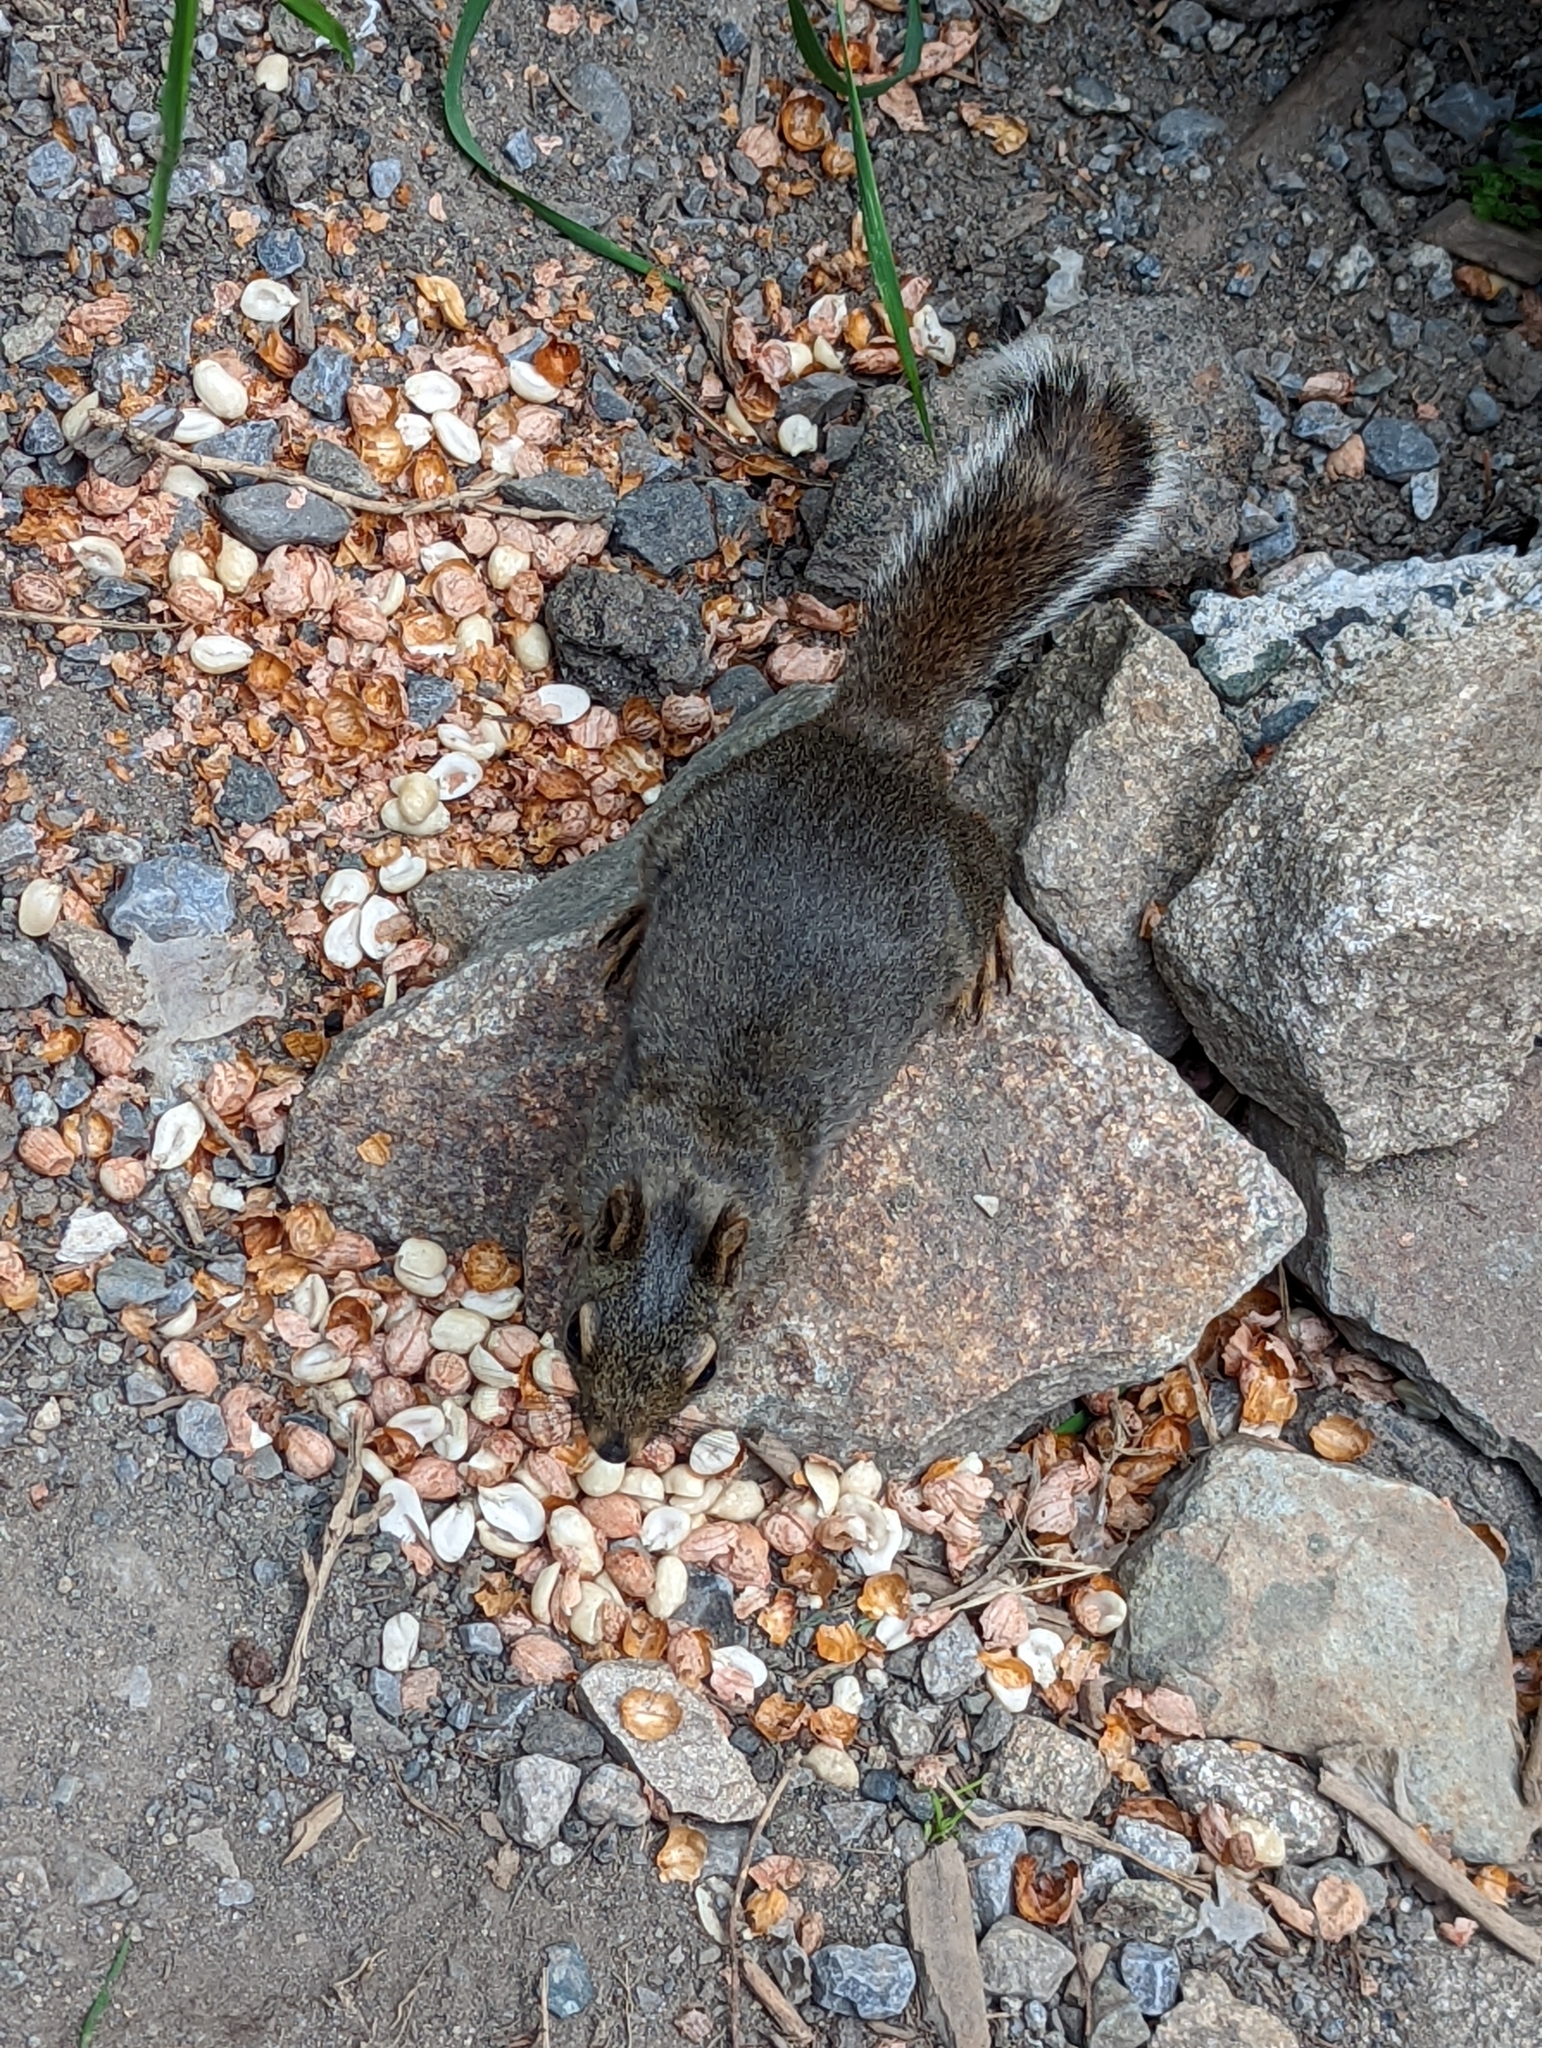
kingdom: Animalia
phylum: Chordata
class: Mammalia
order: Rodentia
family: Sciuridae
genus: Tamiasciurus
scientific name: Tamiasciurus douglasii
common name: Douglas's squirrel
